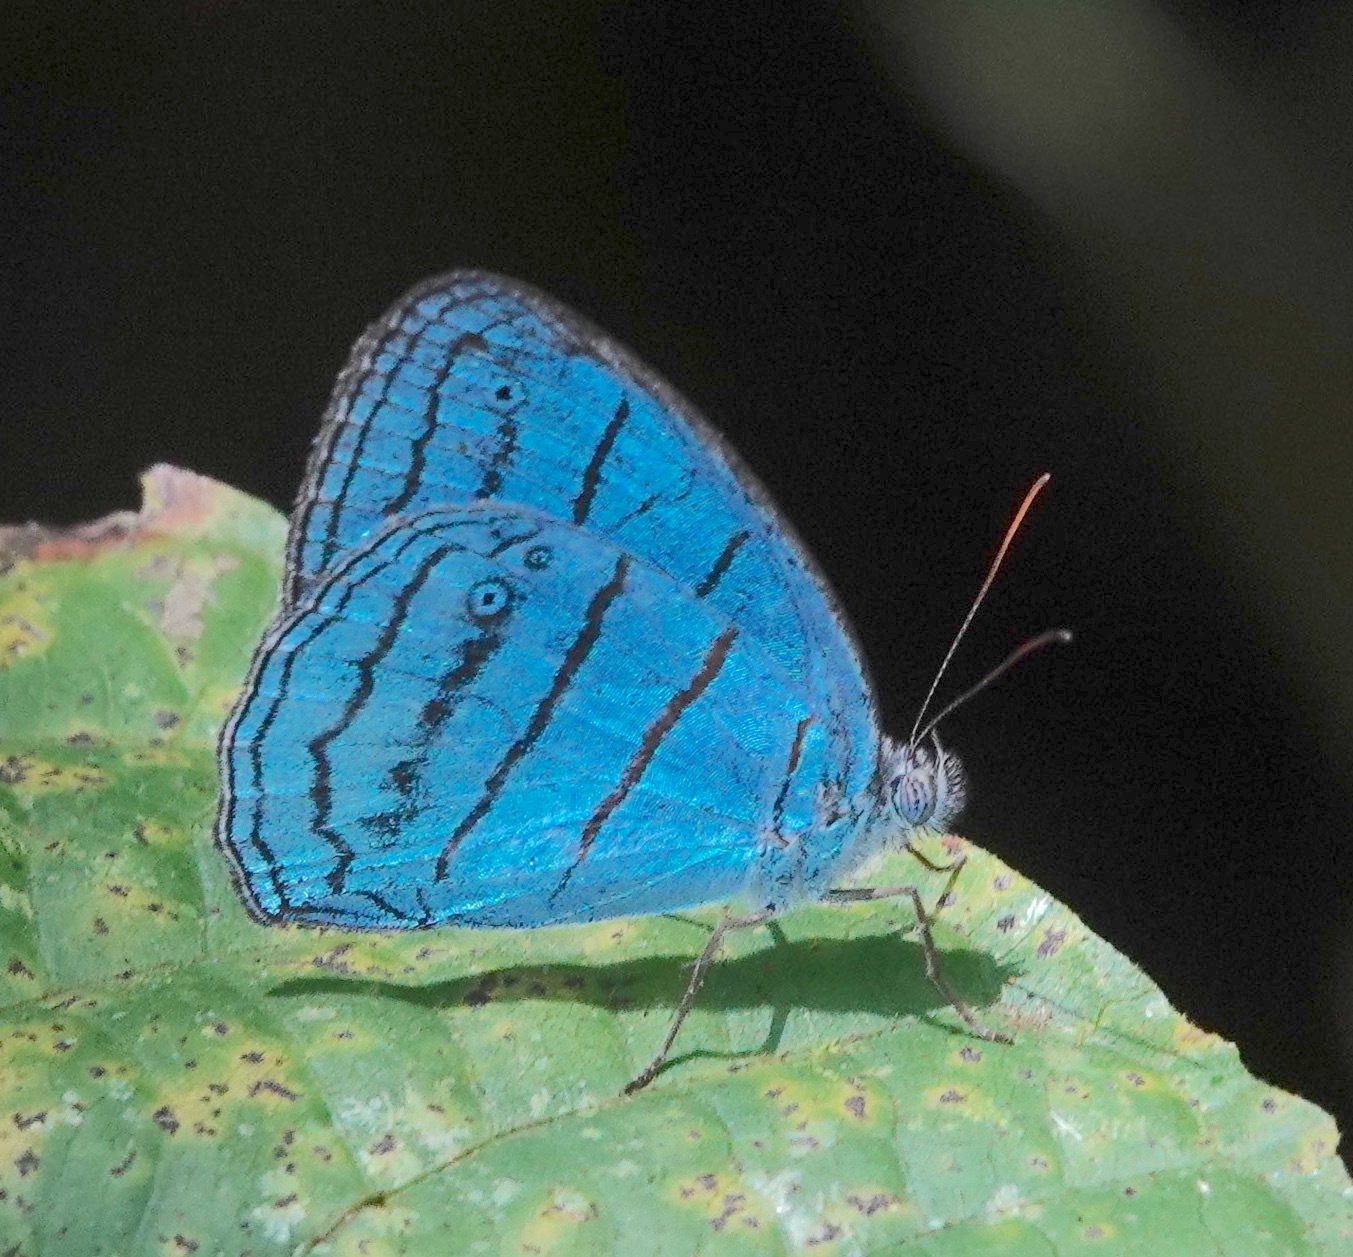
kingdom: Animalia
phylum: Arthropoda
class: Insecta
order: Lepidoptera
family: Nymphalidae
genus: Caeruleuptychia
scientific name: Caeruleuptychia lobelia
